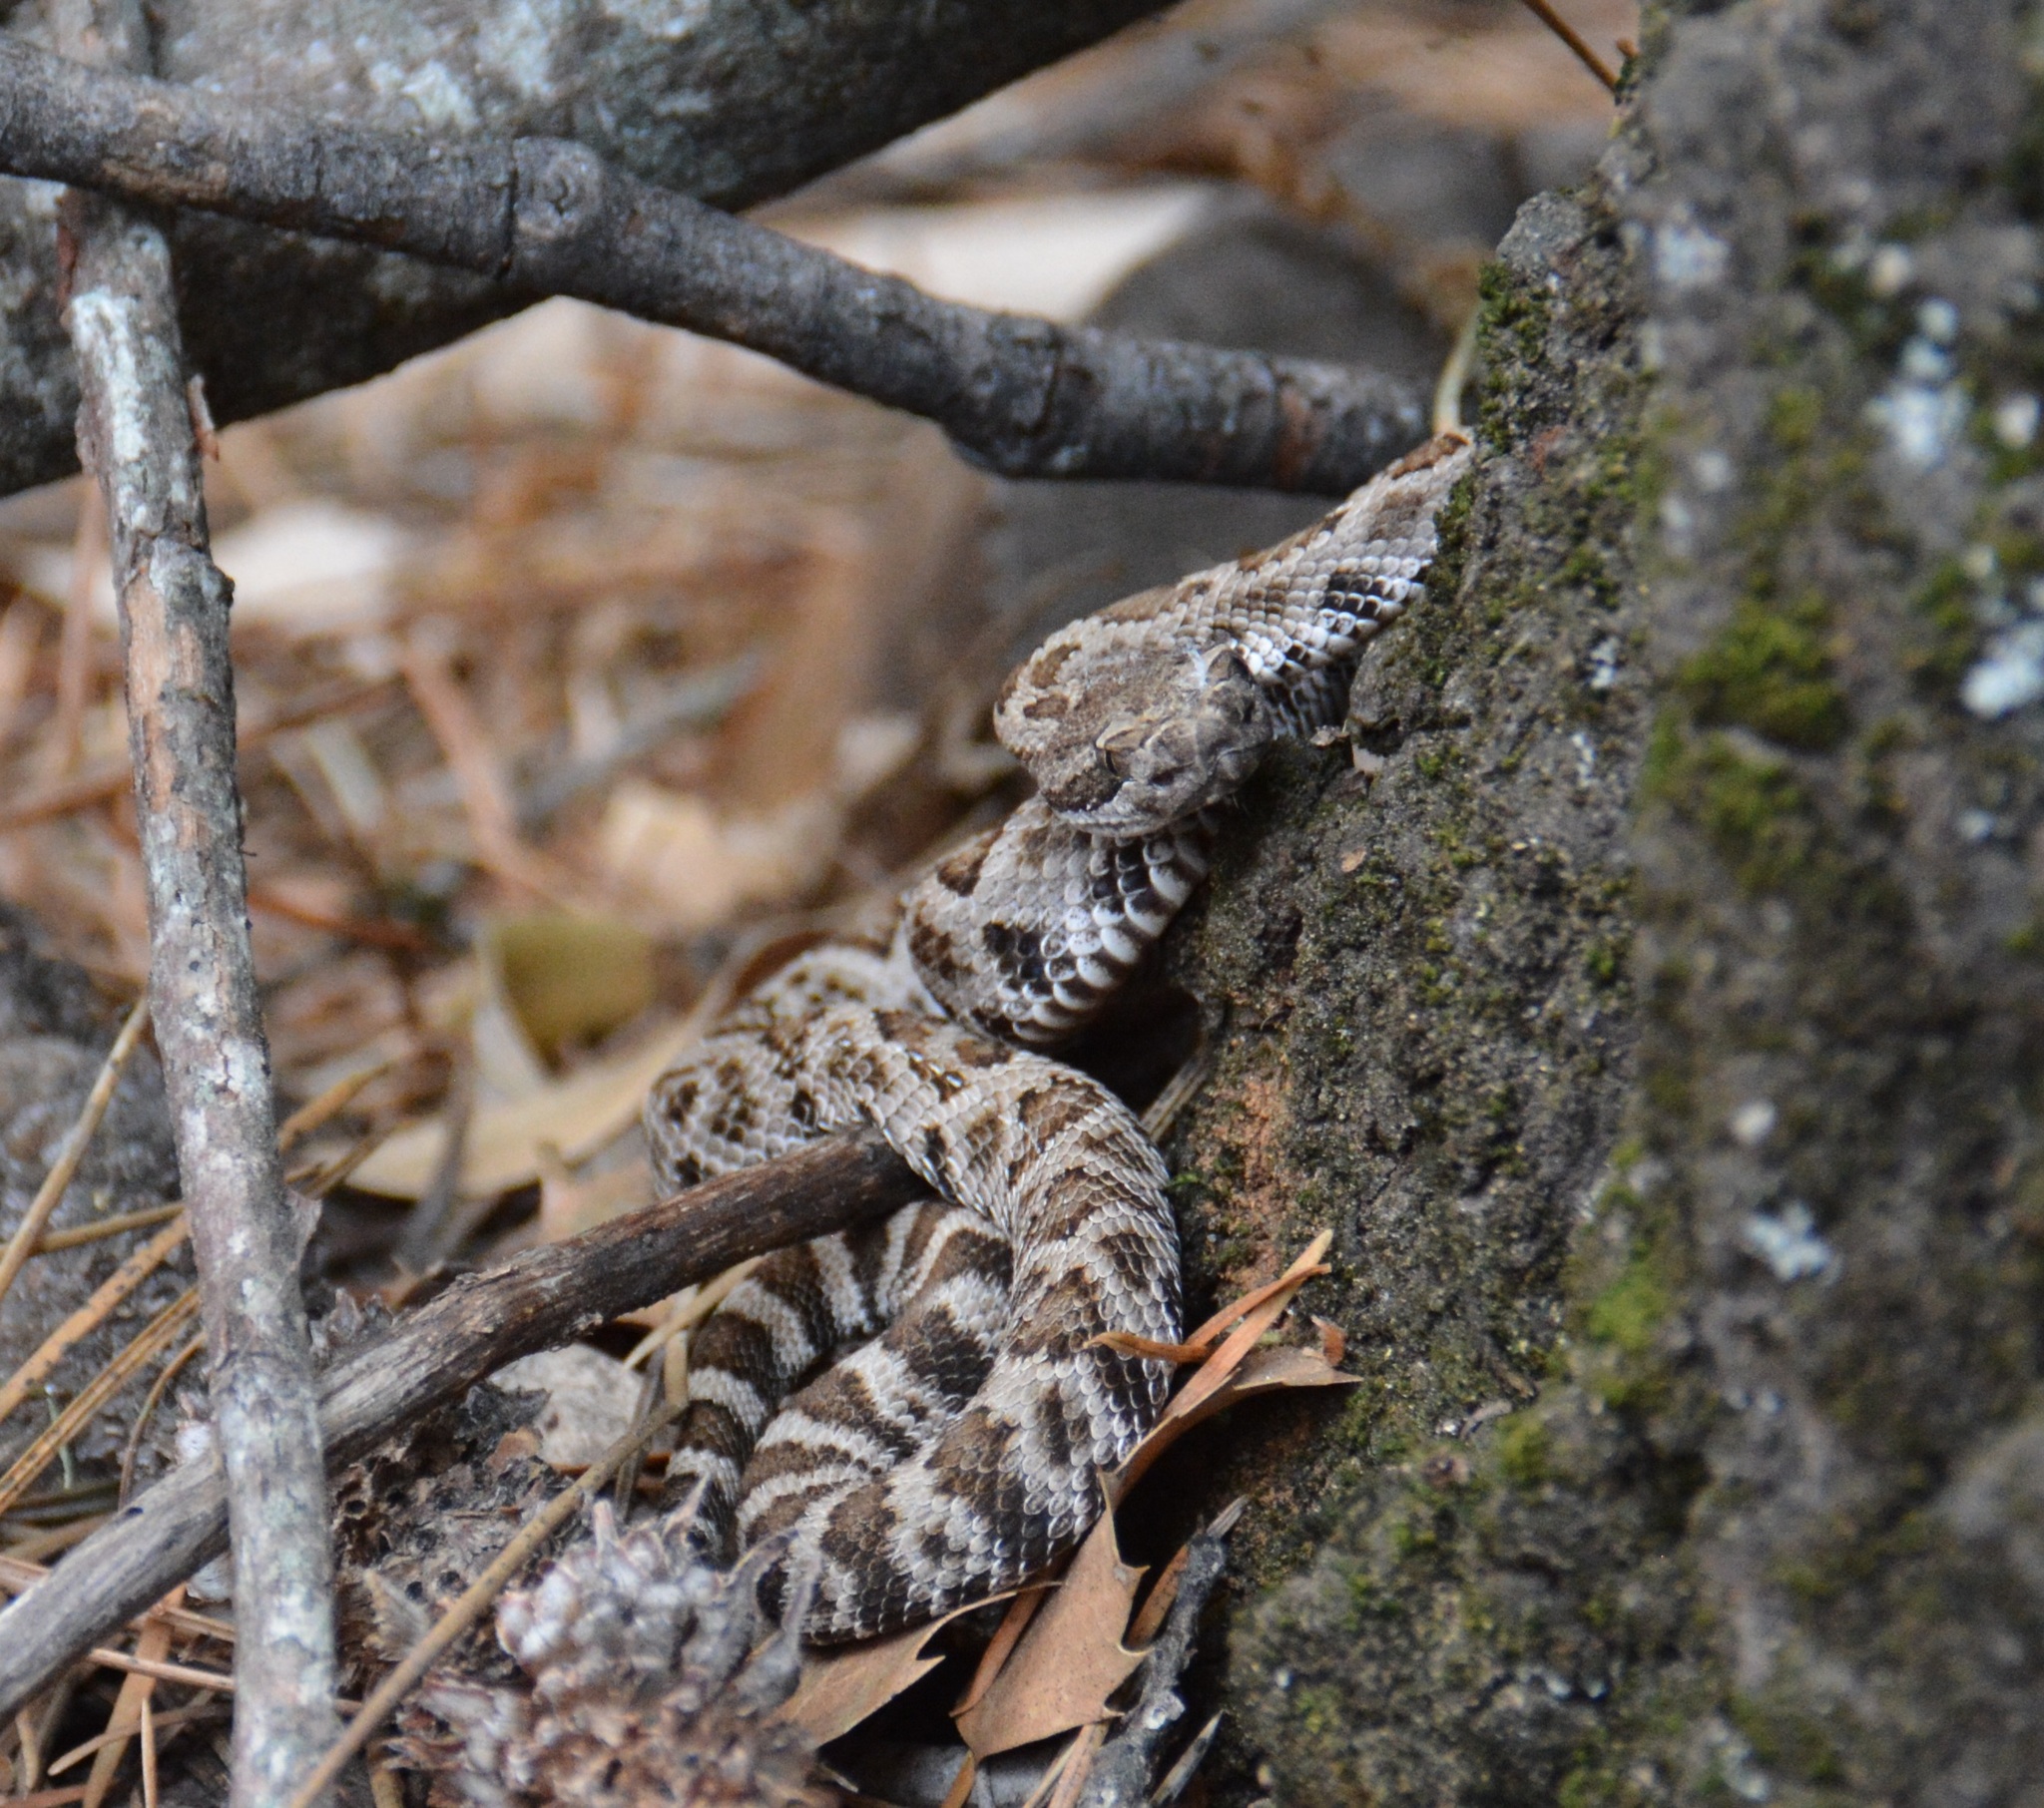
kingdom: Animalia
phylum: Chordata
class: Squamata
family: Viperidae
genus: Crotalus
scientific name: Crotalus oreganus
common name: Abyssus
